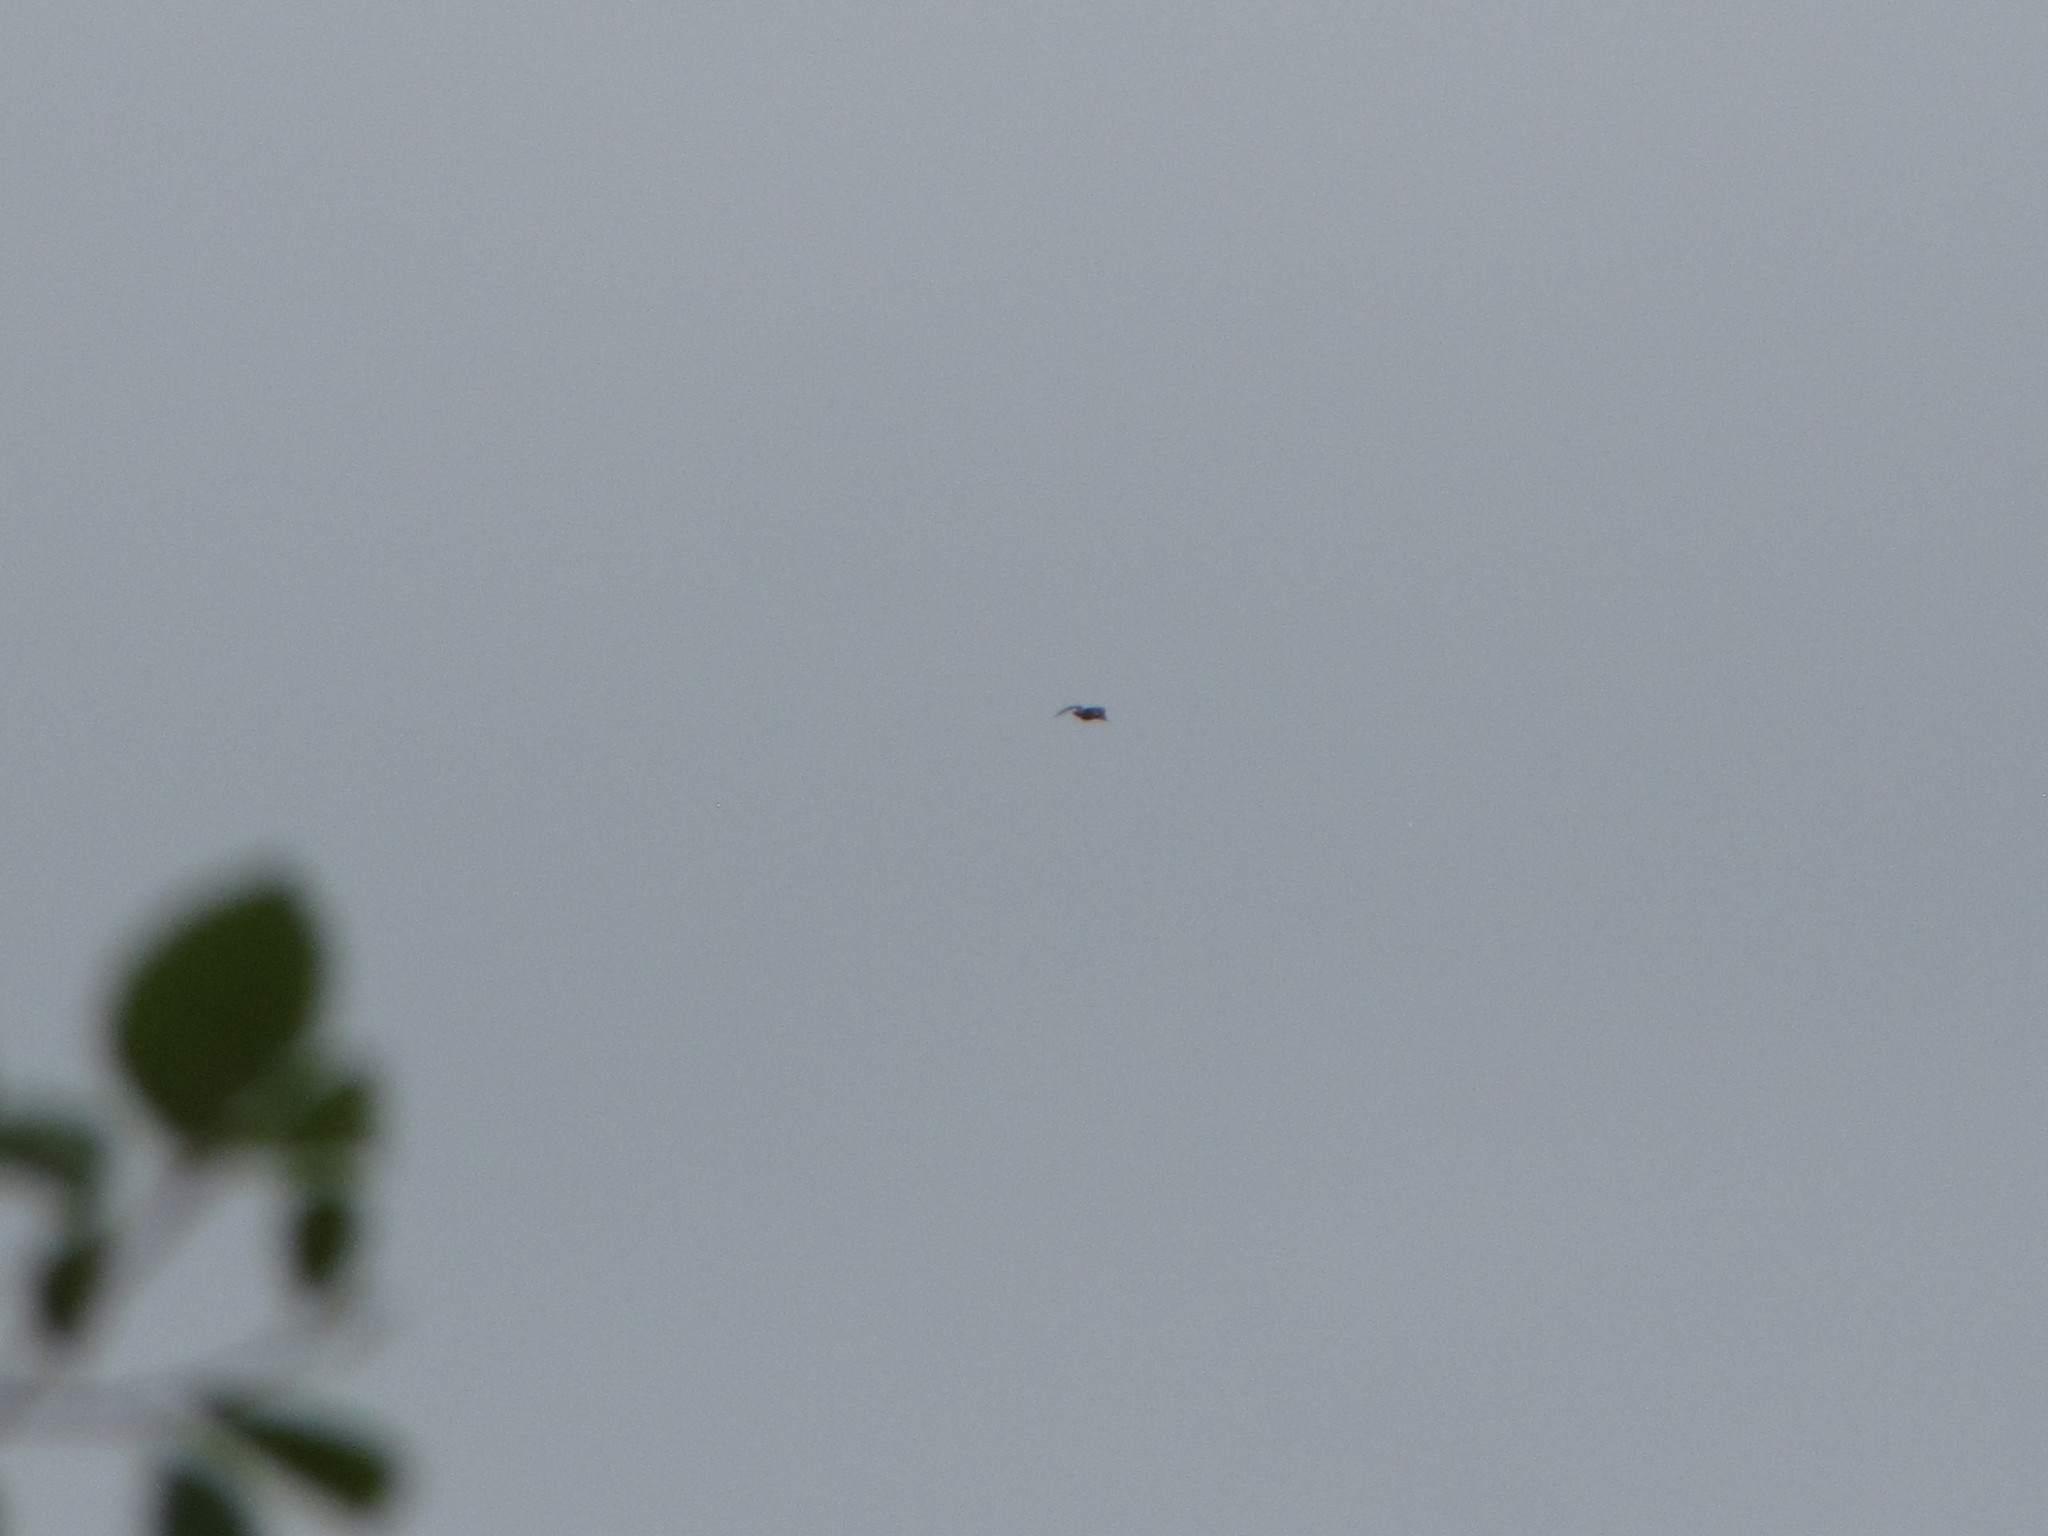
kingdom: Animalia
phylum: Chordata
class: Aves
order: Anseriformes
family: Anatidae
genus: Anas
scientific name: Anas platyrhynchos
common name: Mallard
